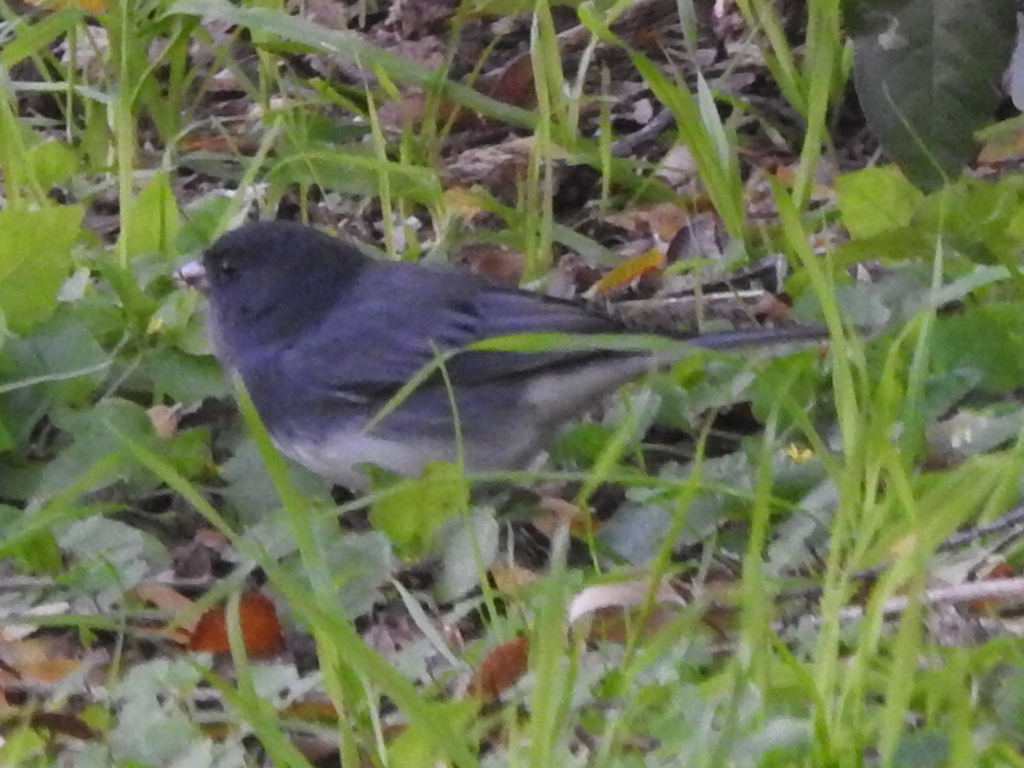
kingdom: Animalia
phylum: Chordata
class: Aves
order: Passeriformes
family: Passerellidae
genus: Junco
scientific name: Junco hyemalis
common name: Dark-eyed junco
